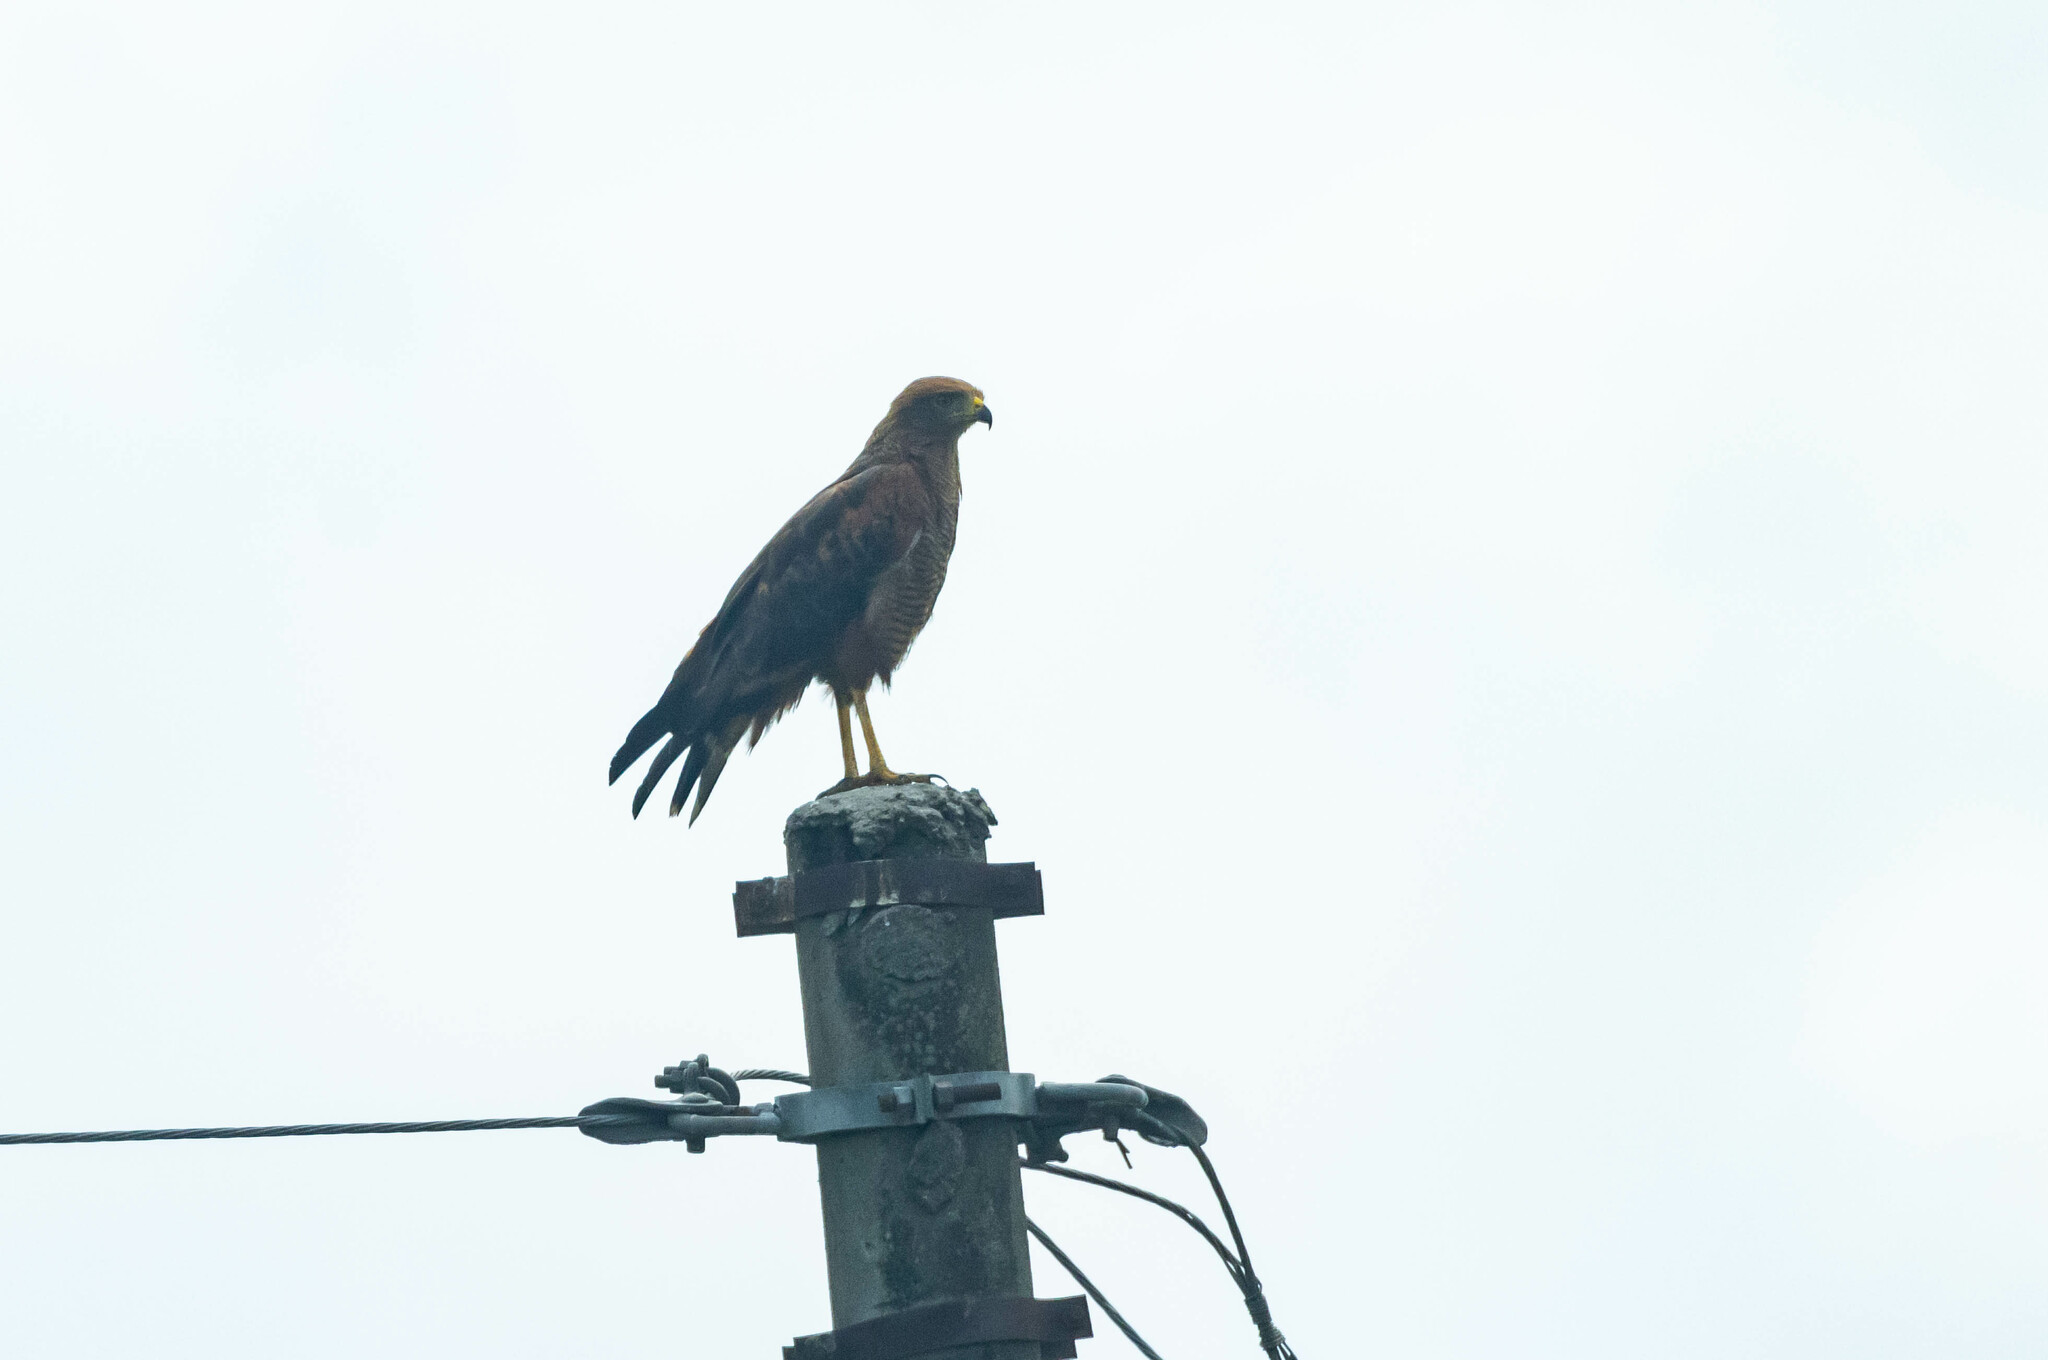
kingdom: Animalia
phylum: Chordata
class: Aves
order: Accipitriformes
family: Accipitridae
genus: Buteogallus
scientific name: Buteogallus meridionalis
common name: Savanna hawk
